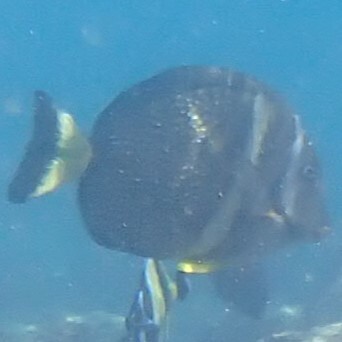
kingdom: Animalia
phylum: Chordata
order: Perciformes
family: Acanthuridae
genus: Acanthurus
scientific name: Acanthurus guttatus
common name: Whitespotted surgeonfish
